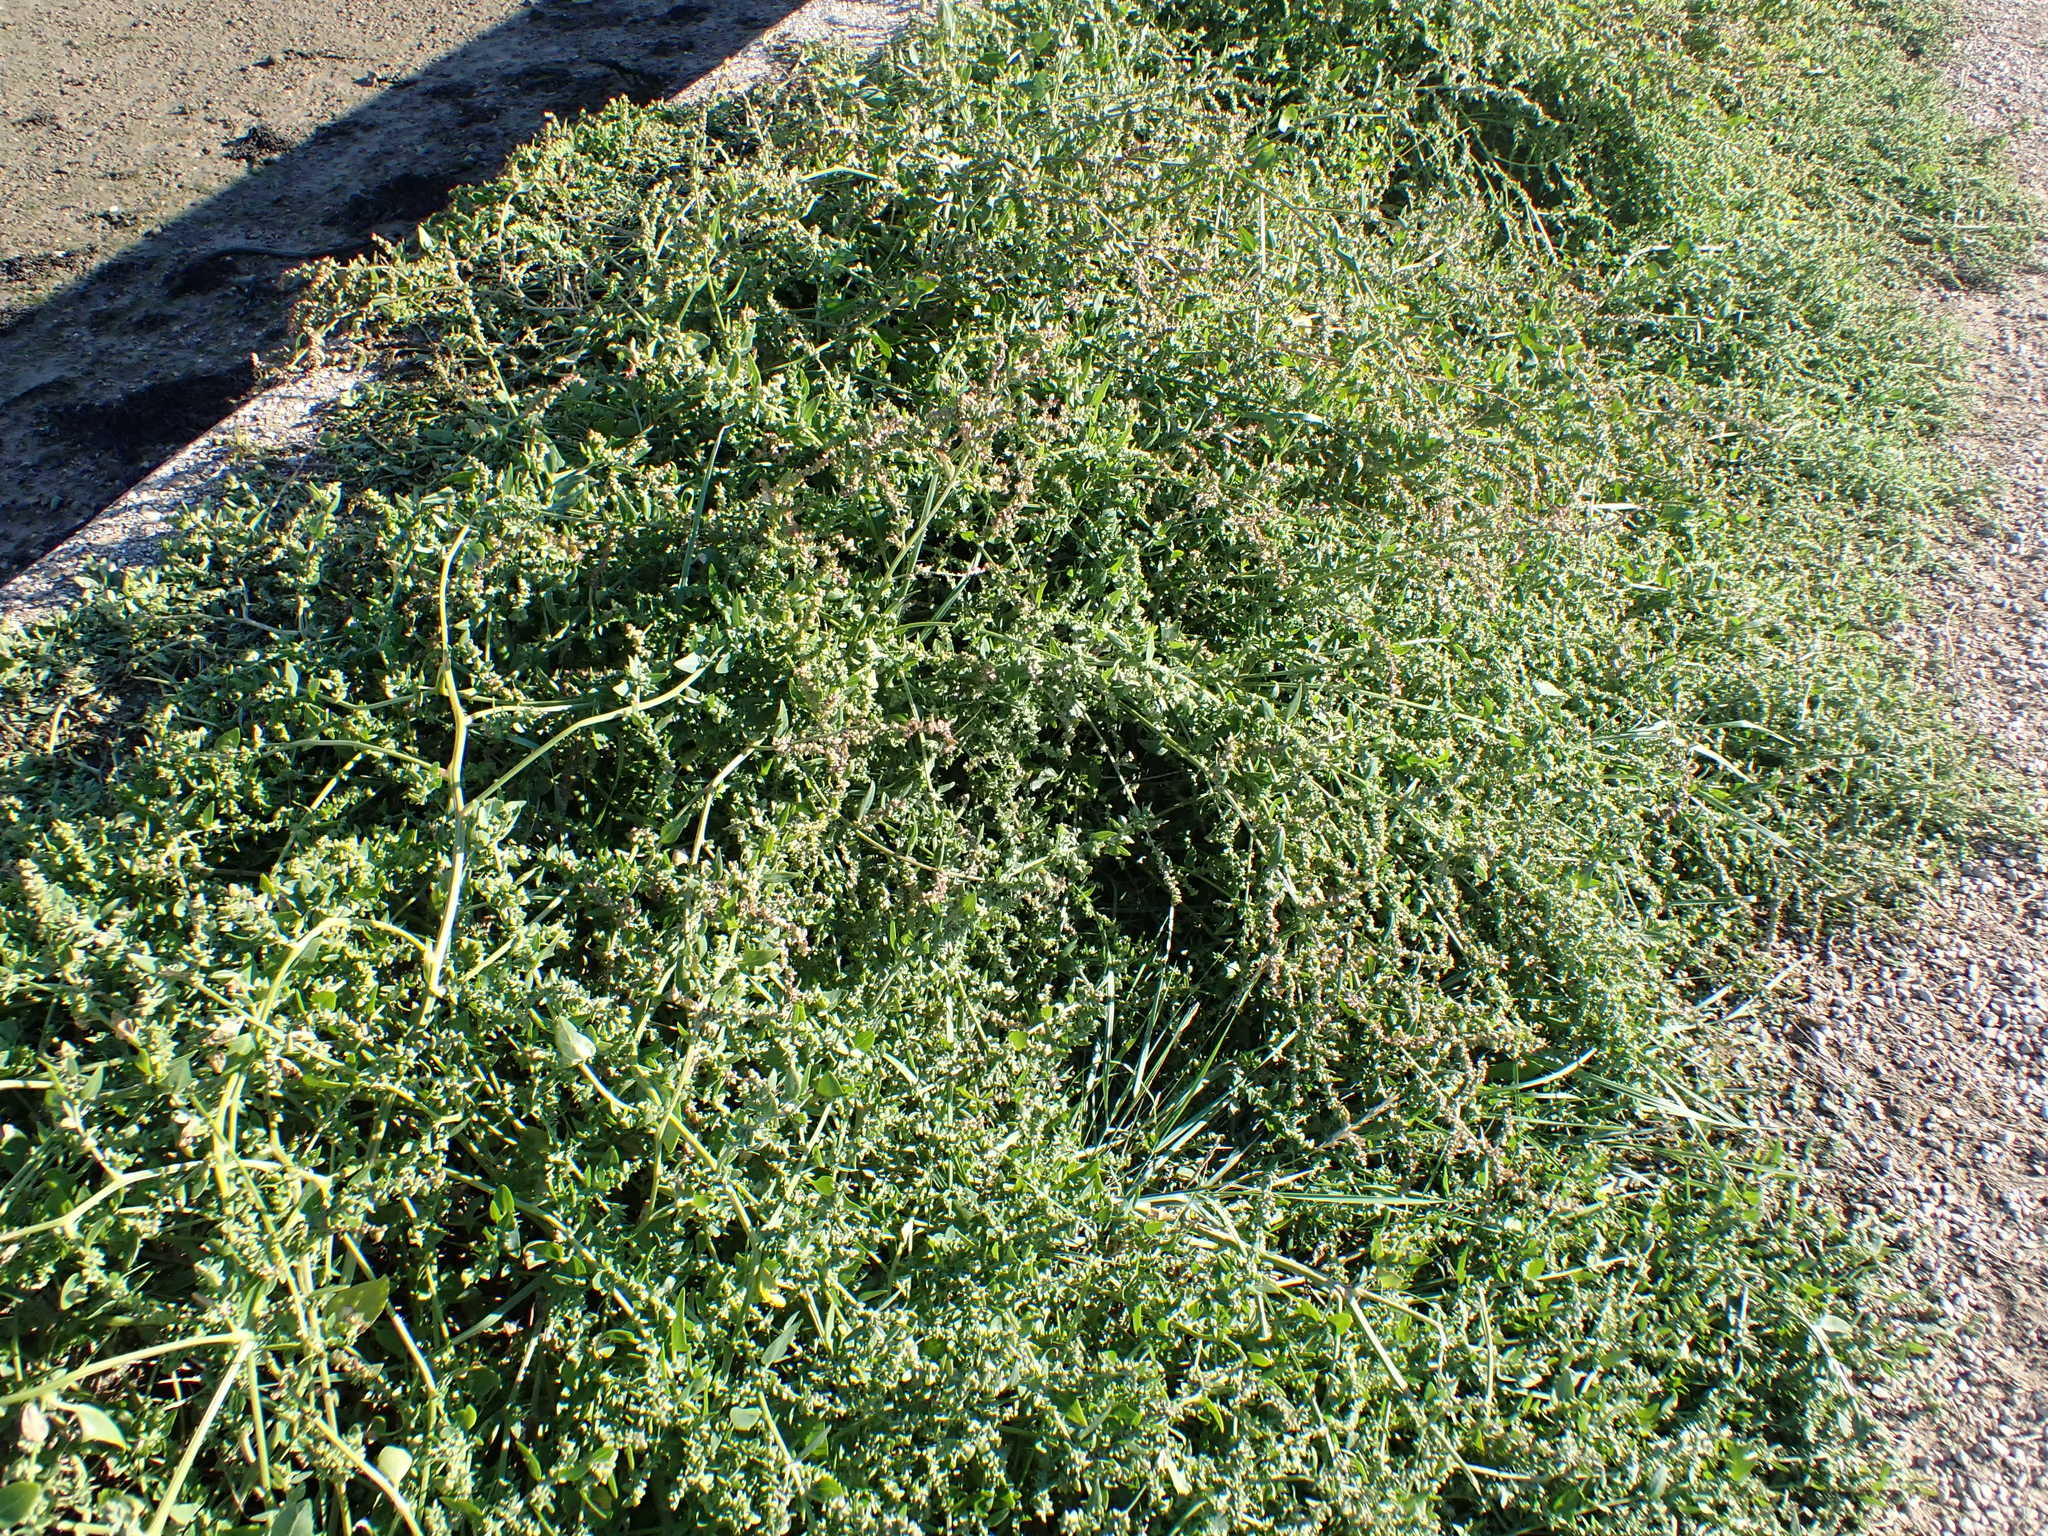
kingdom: Plantae
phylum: Tracheophyta
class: Magnoliopsida
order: Caryophyllales
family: Amaranthaceae
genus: Atriplex
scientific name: Atriplex prostrata
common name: Spear-leaved orache
